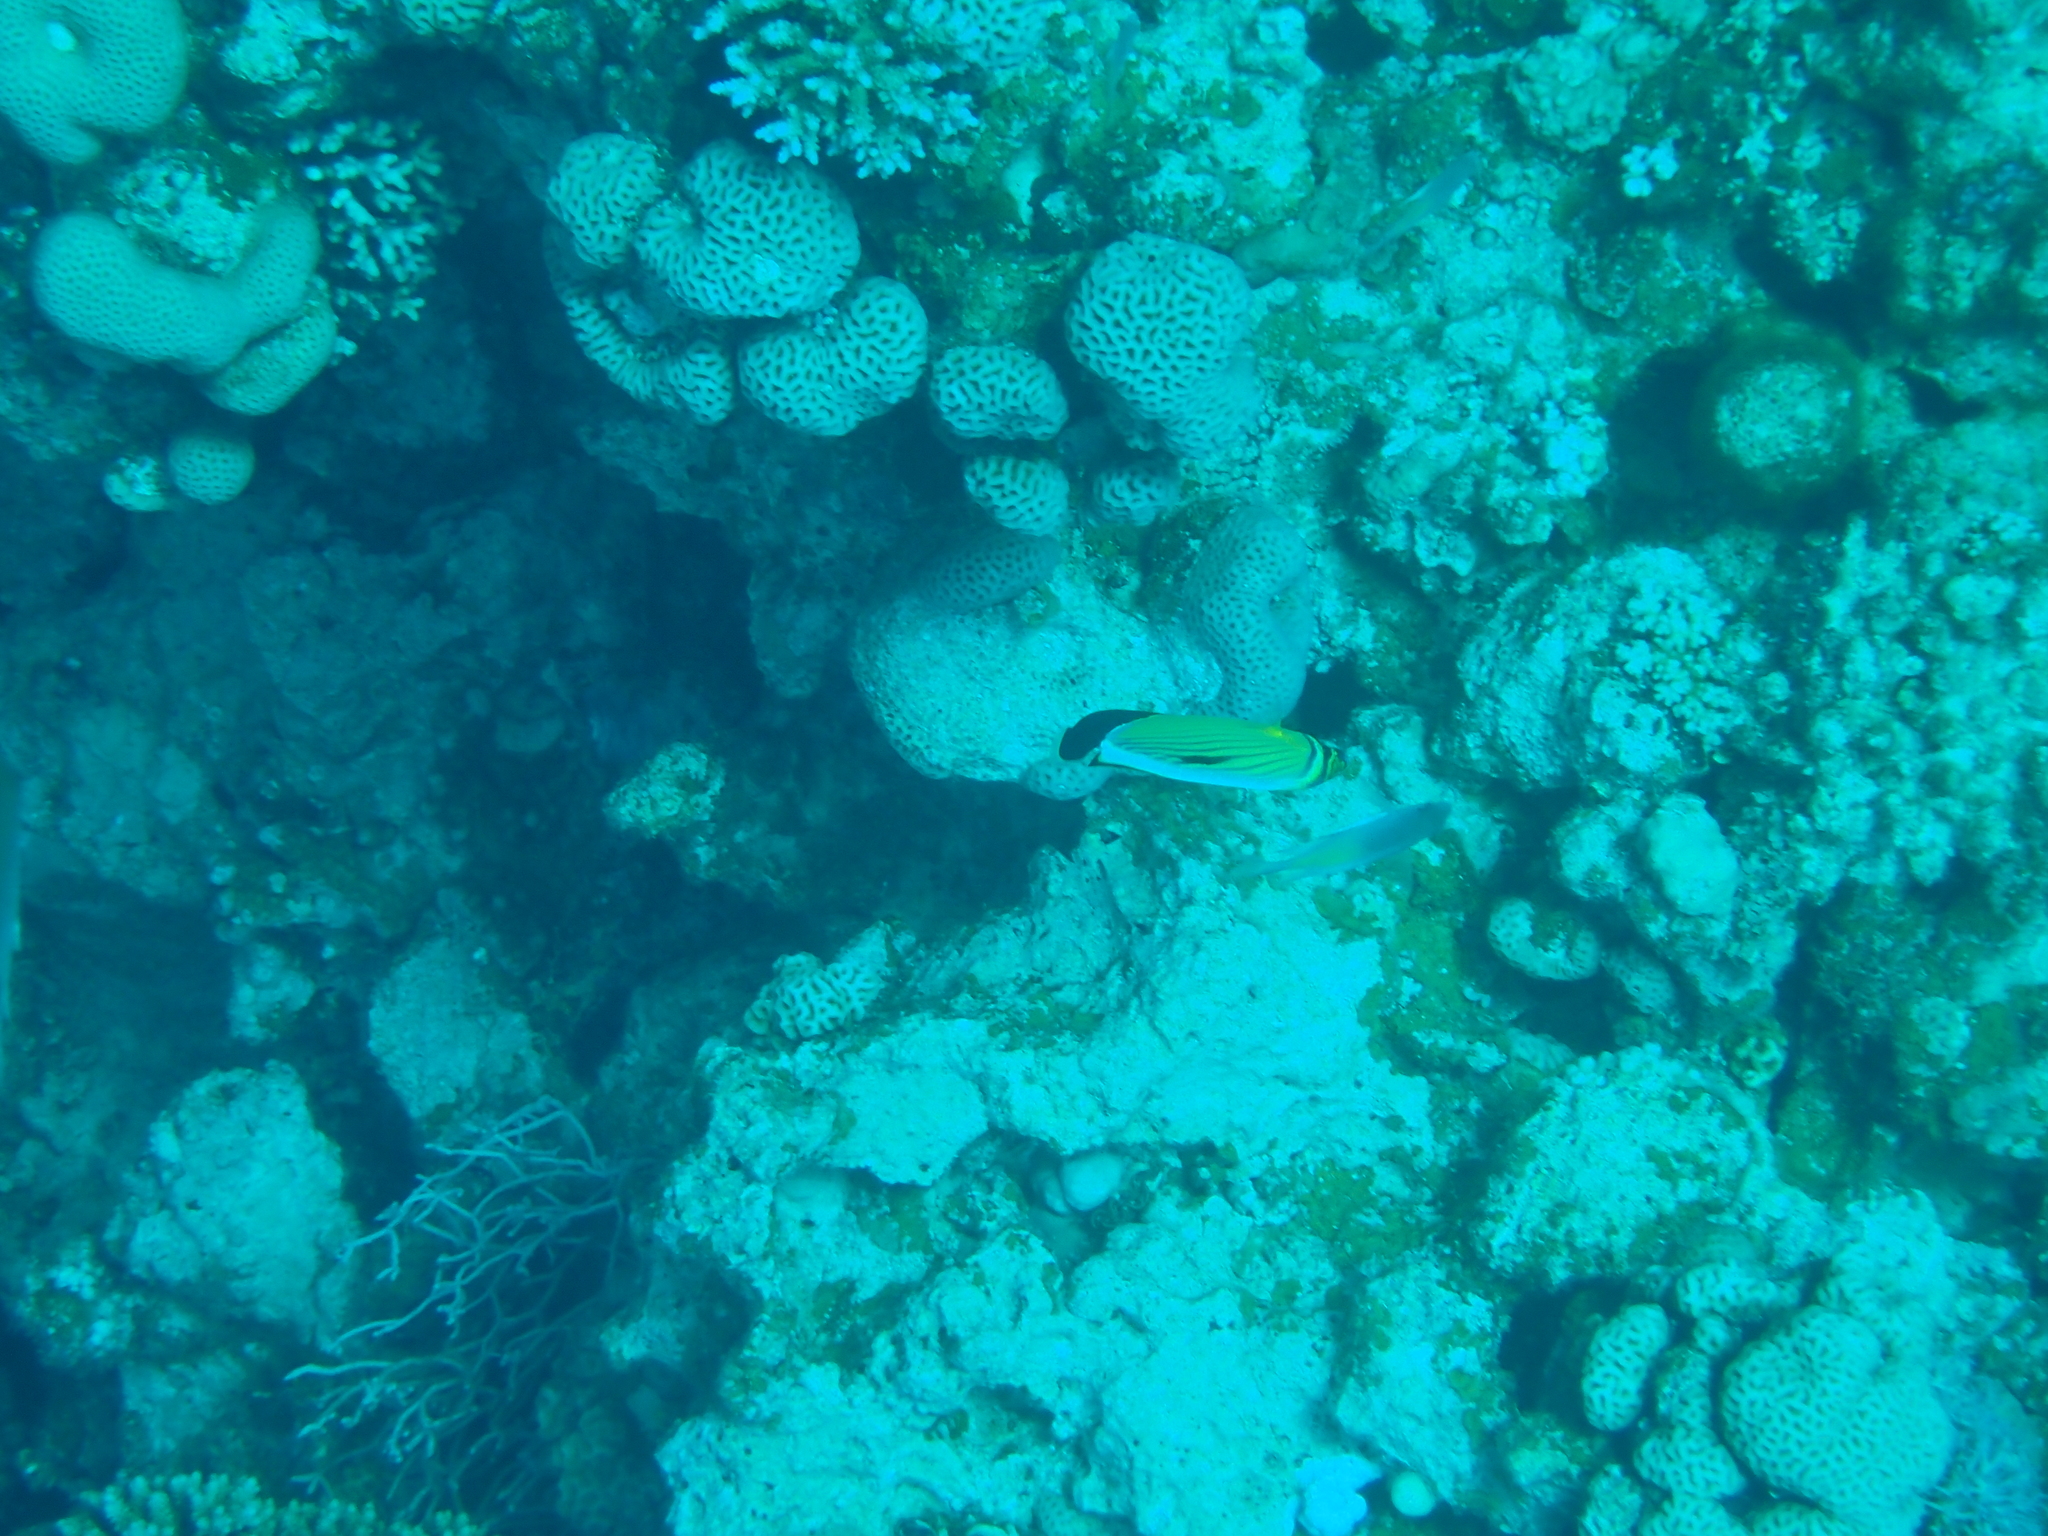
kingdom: Animalia
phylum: Chordata
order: Perciformes
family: Chaetodontidae
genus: Chaetodon
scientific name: Chaetodon austriacus
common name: Exquisite butterflyfish
